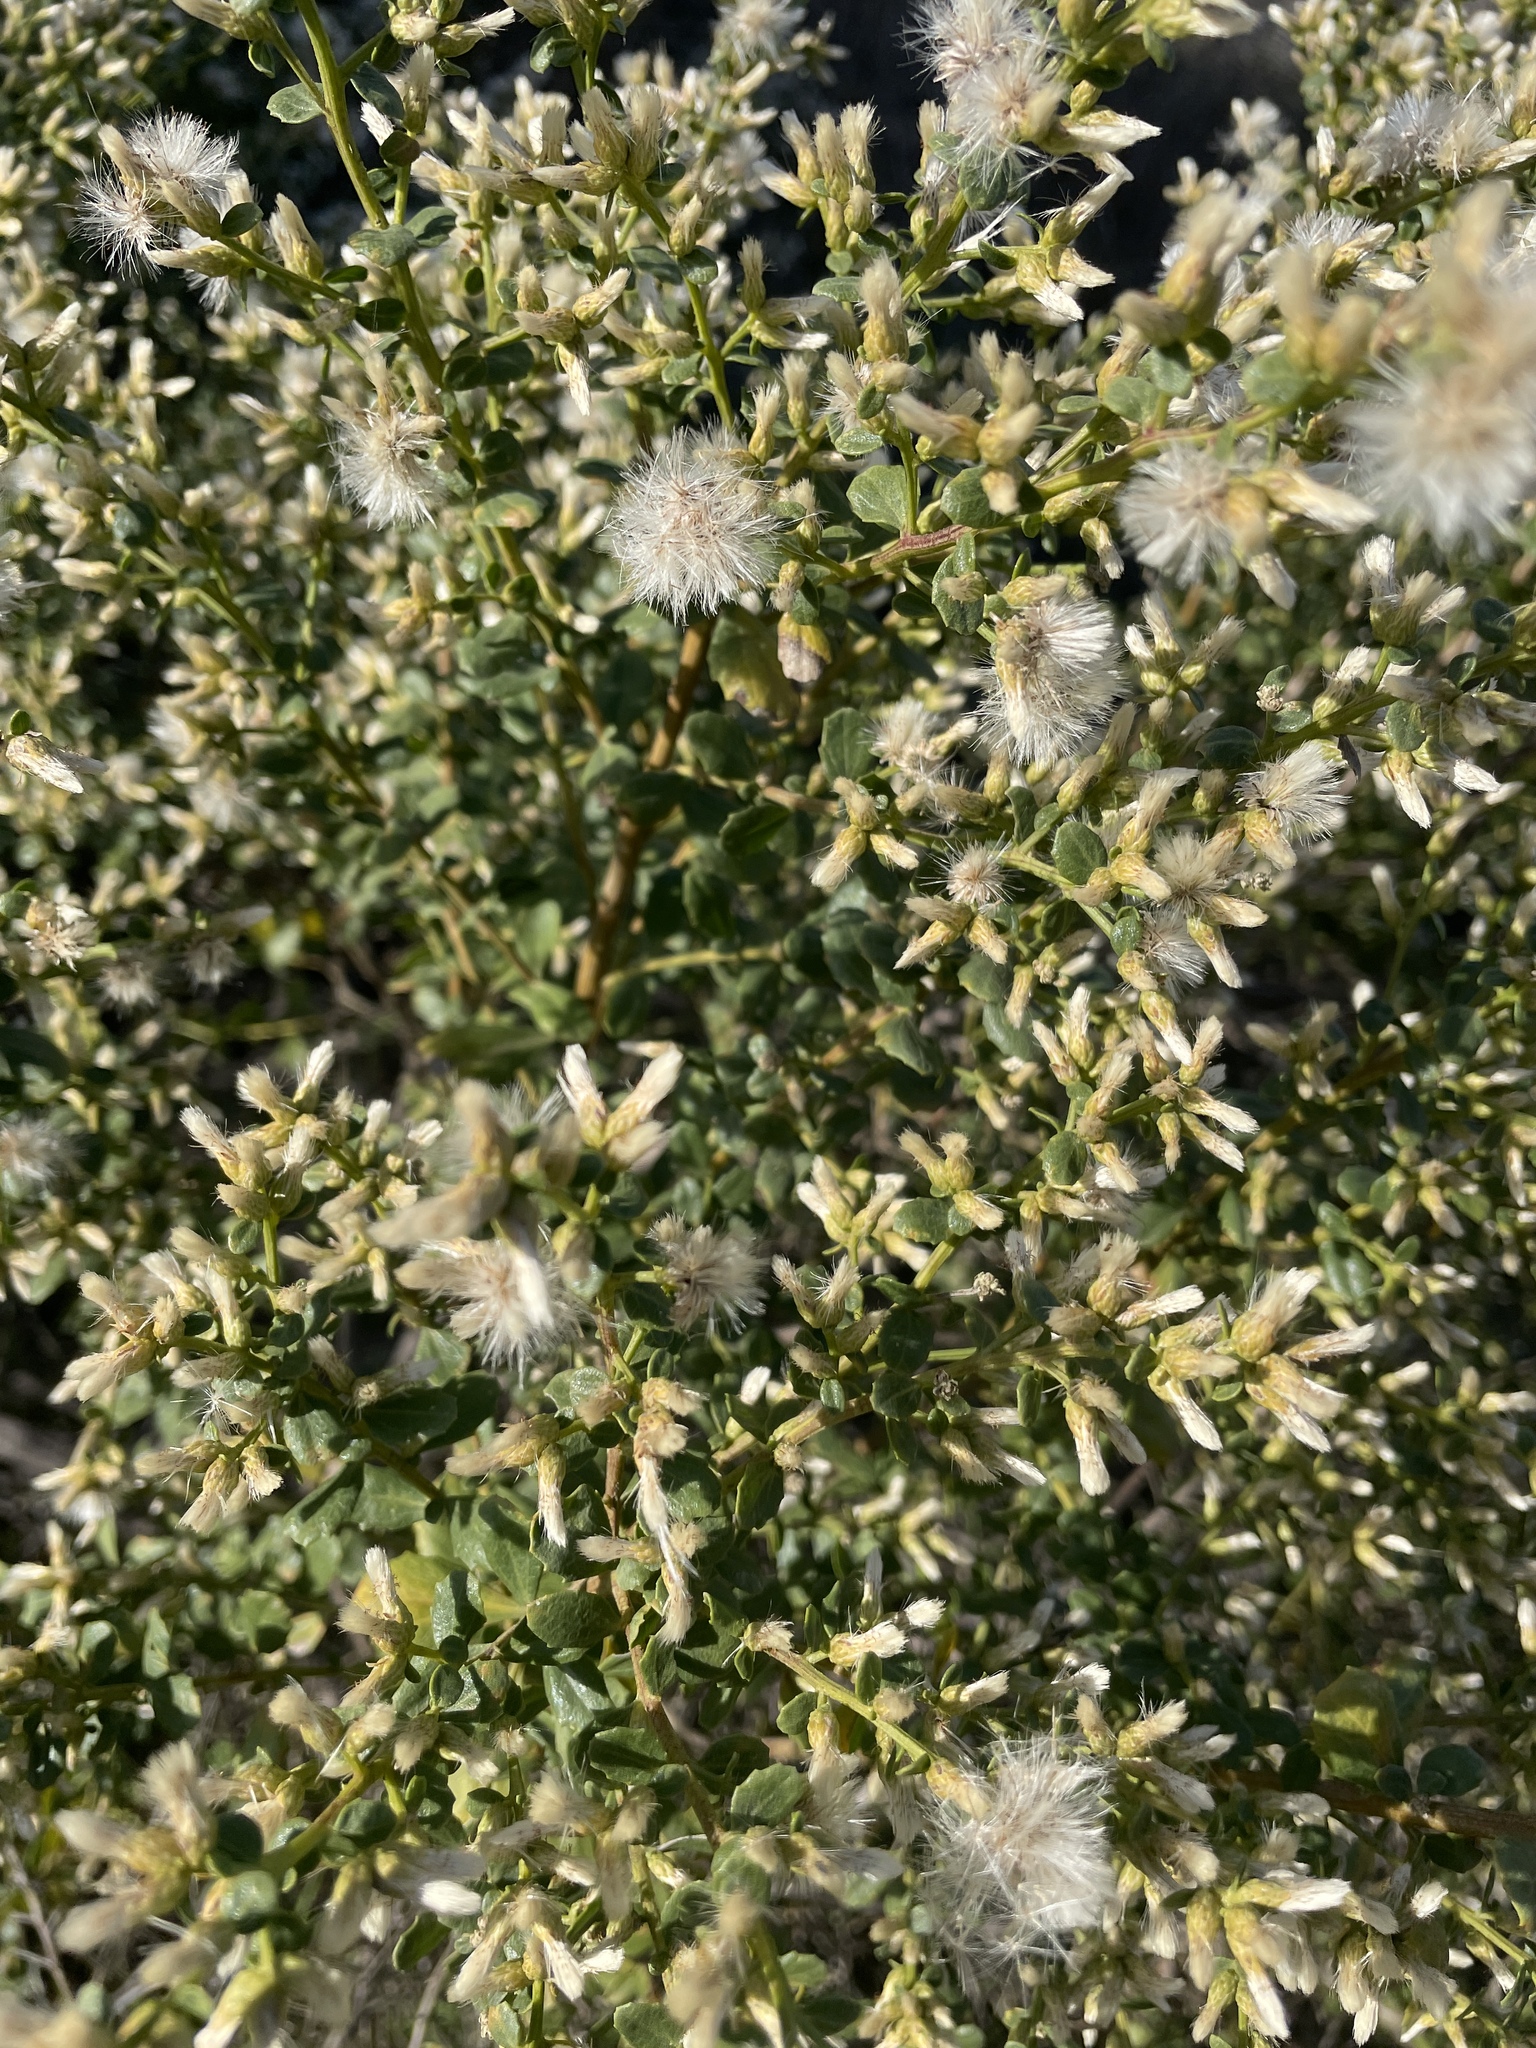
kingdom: Plantae
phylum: Tracheophyta
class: Magnoliopsida
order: Asterales
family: Asteraceae
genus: Baccharis
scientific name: Baccharis pilularis
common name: Coyotebrush
